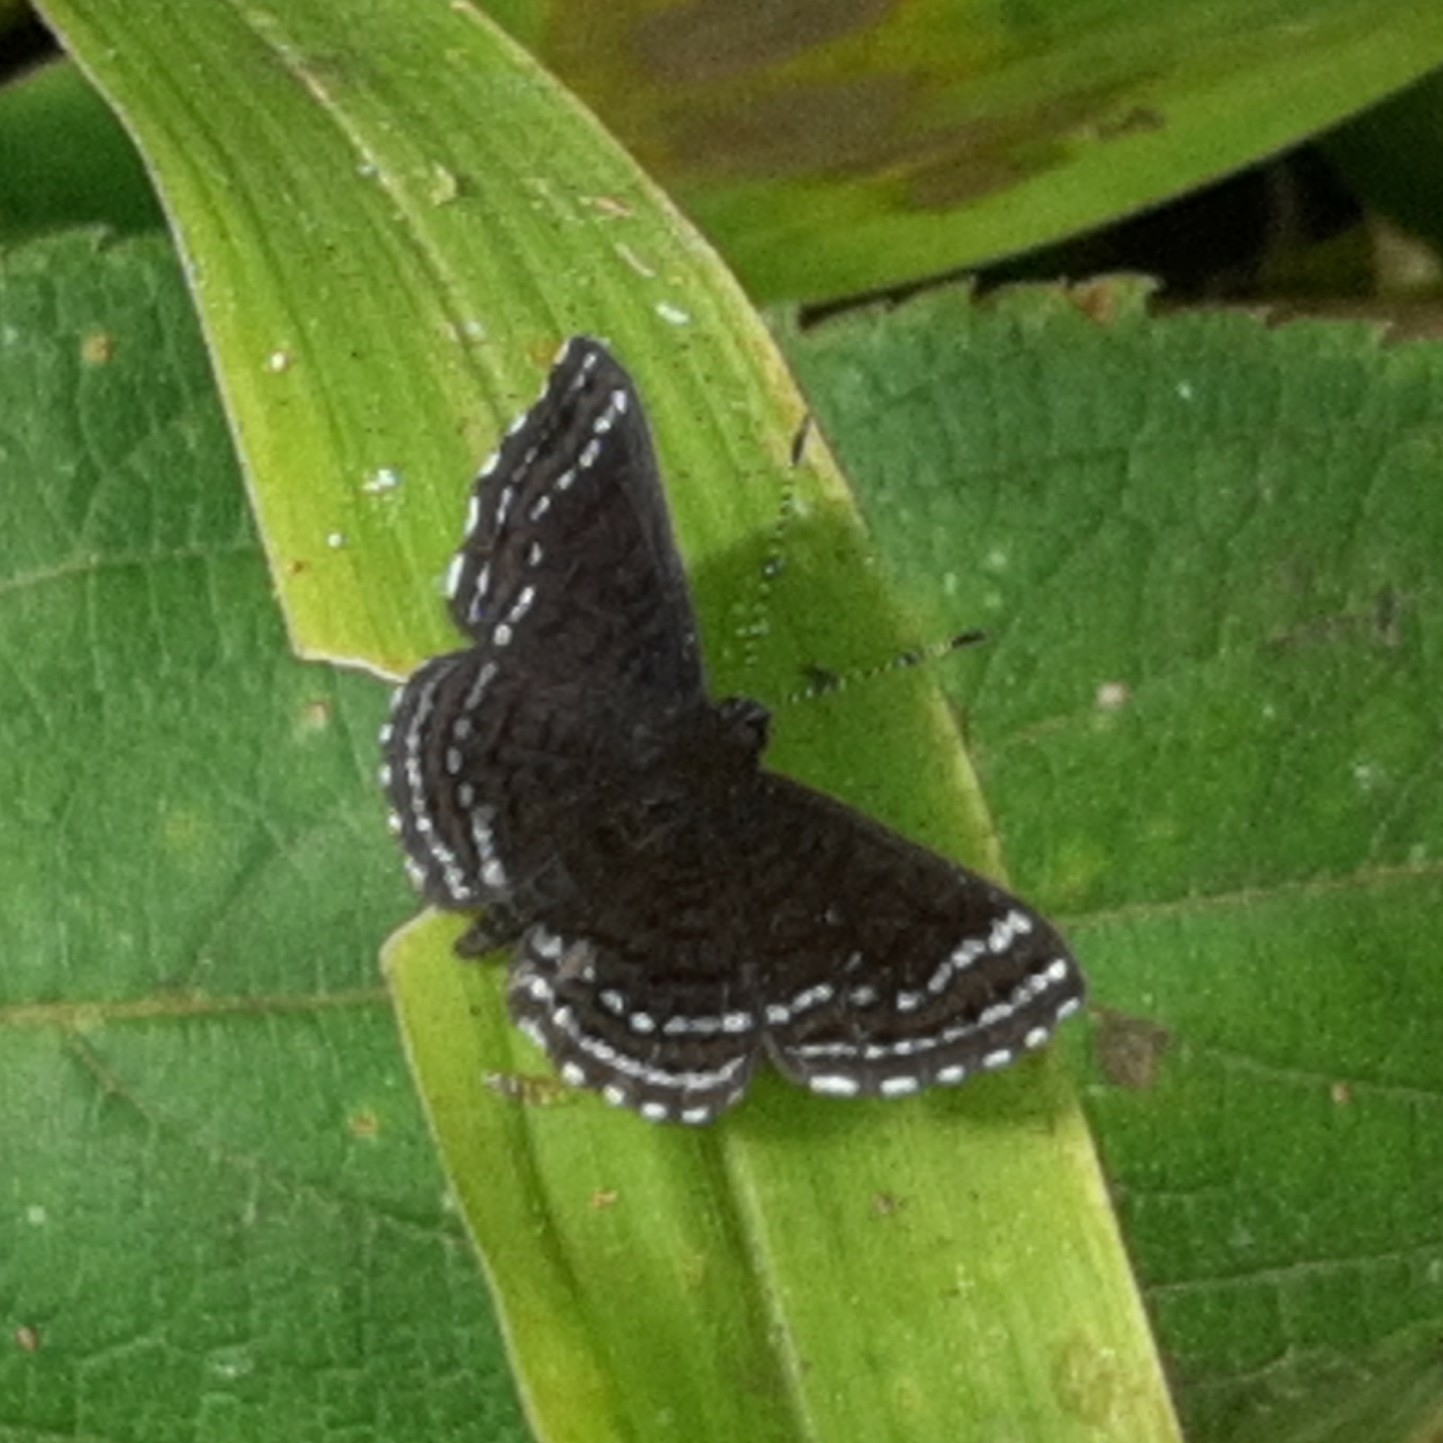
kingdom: Animalia
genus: Charis
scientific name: Charis anius
